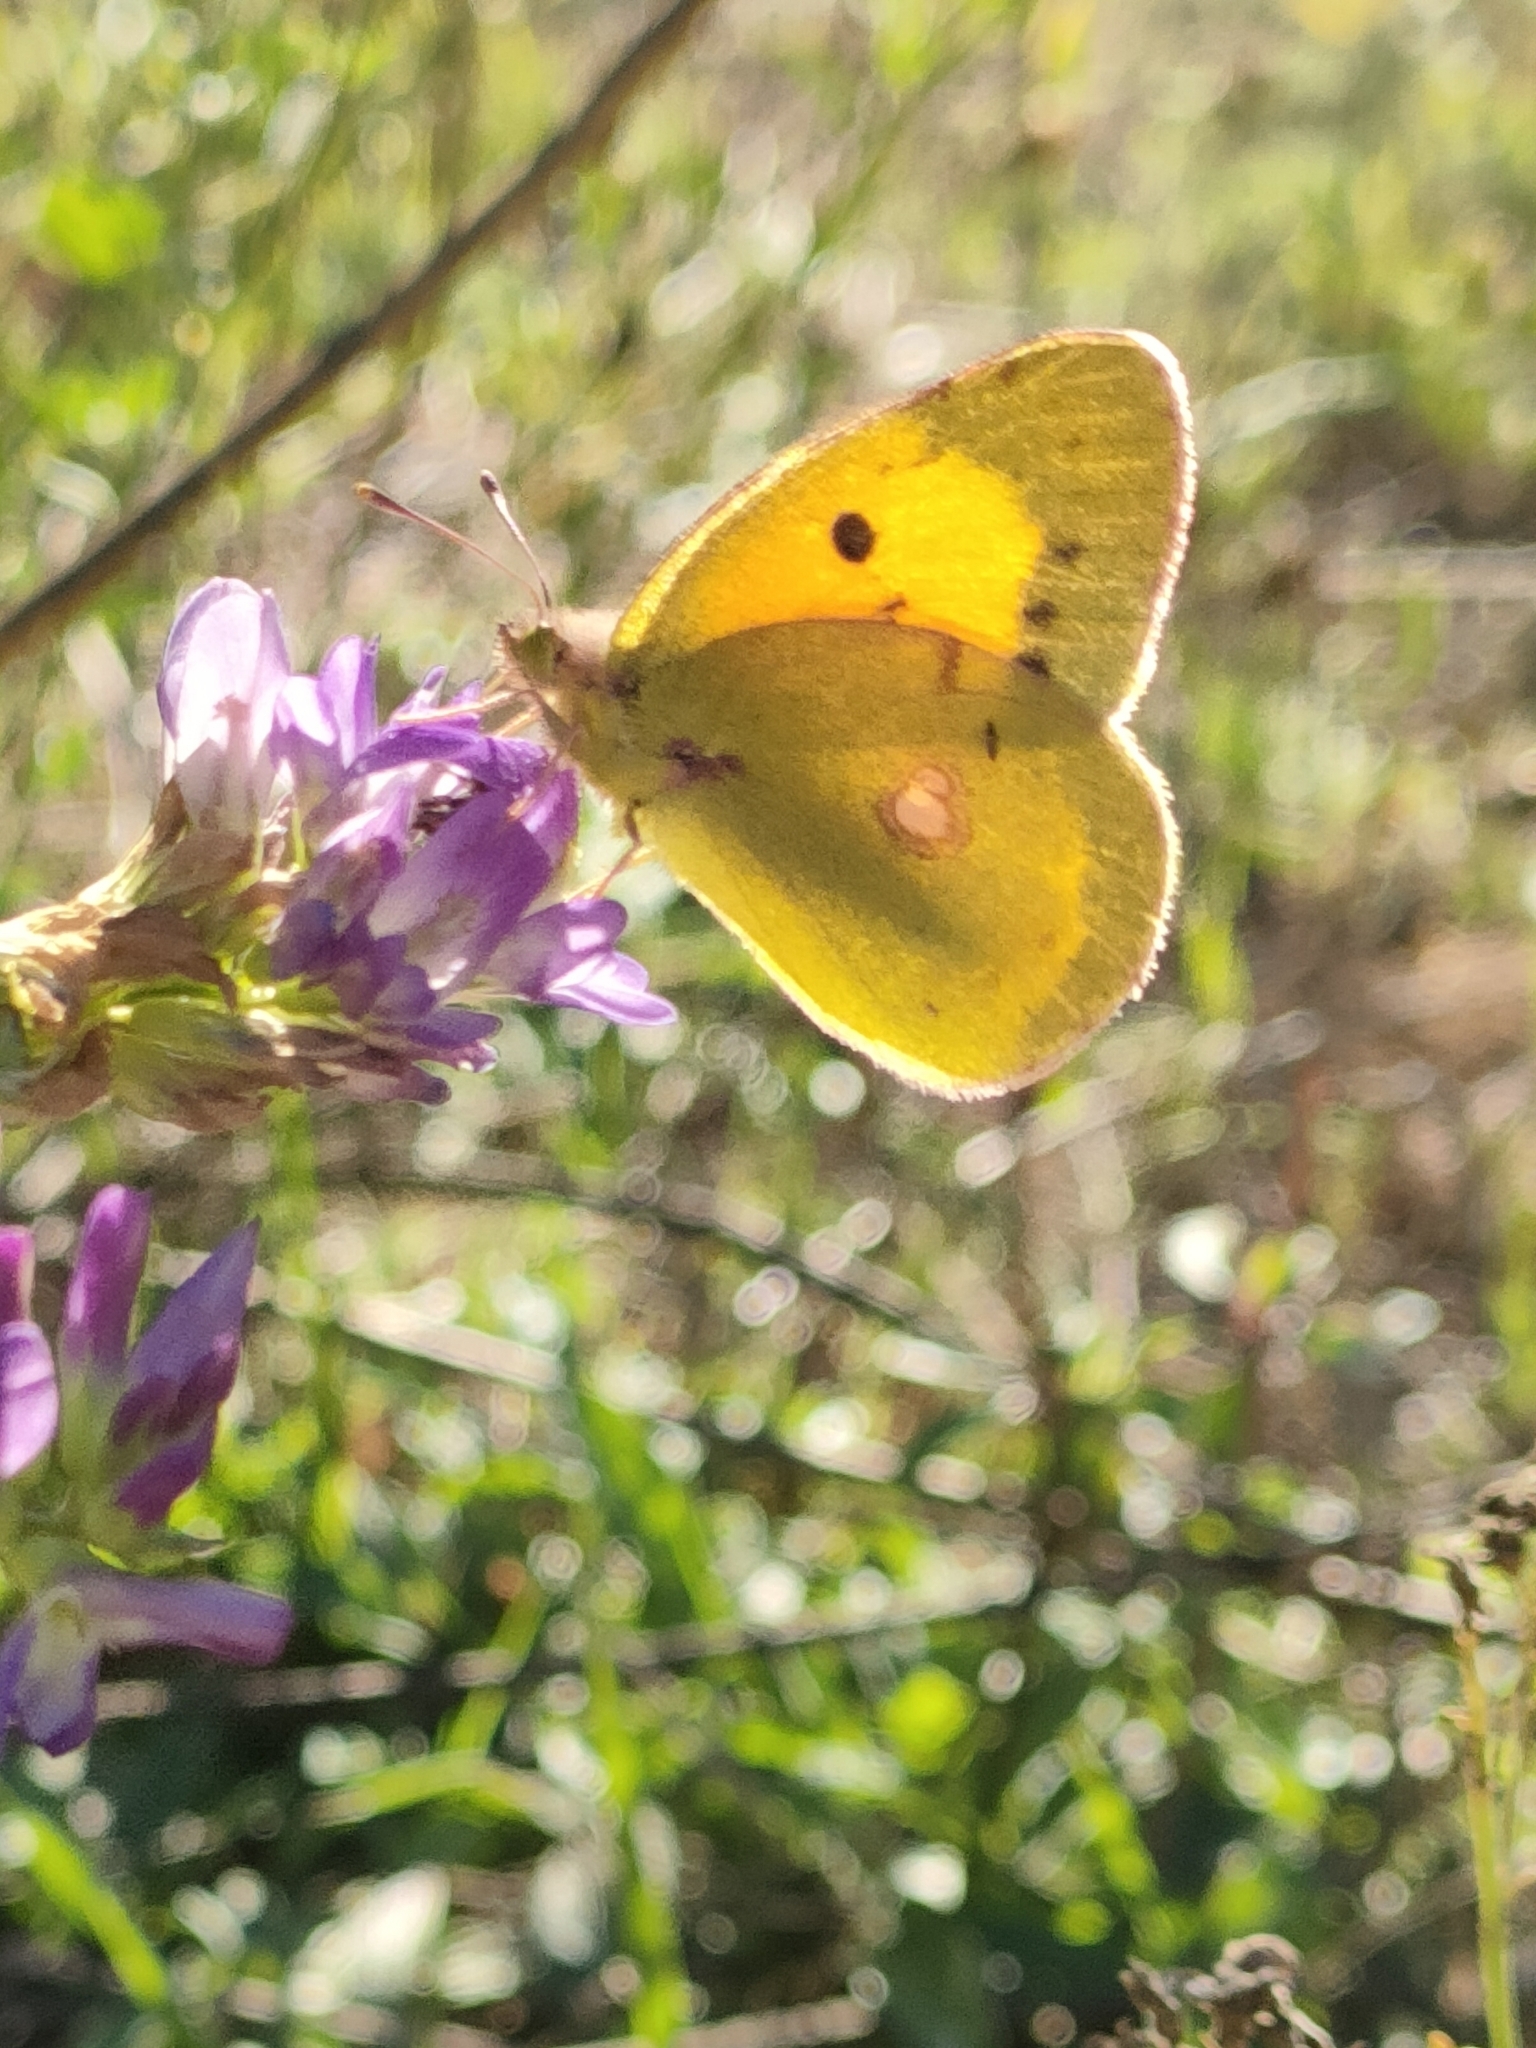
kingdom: Animalia
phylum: Arthropoda
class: Insecta
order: Lepidoptera
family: Pieridae
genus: Colias
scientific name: Colias croceus
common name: Clouded yellow
